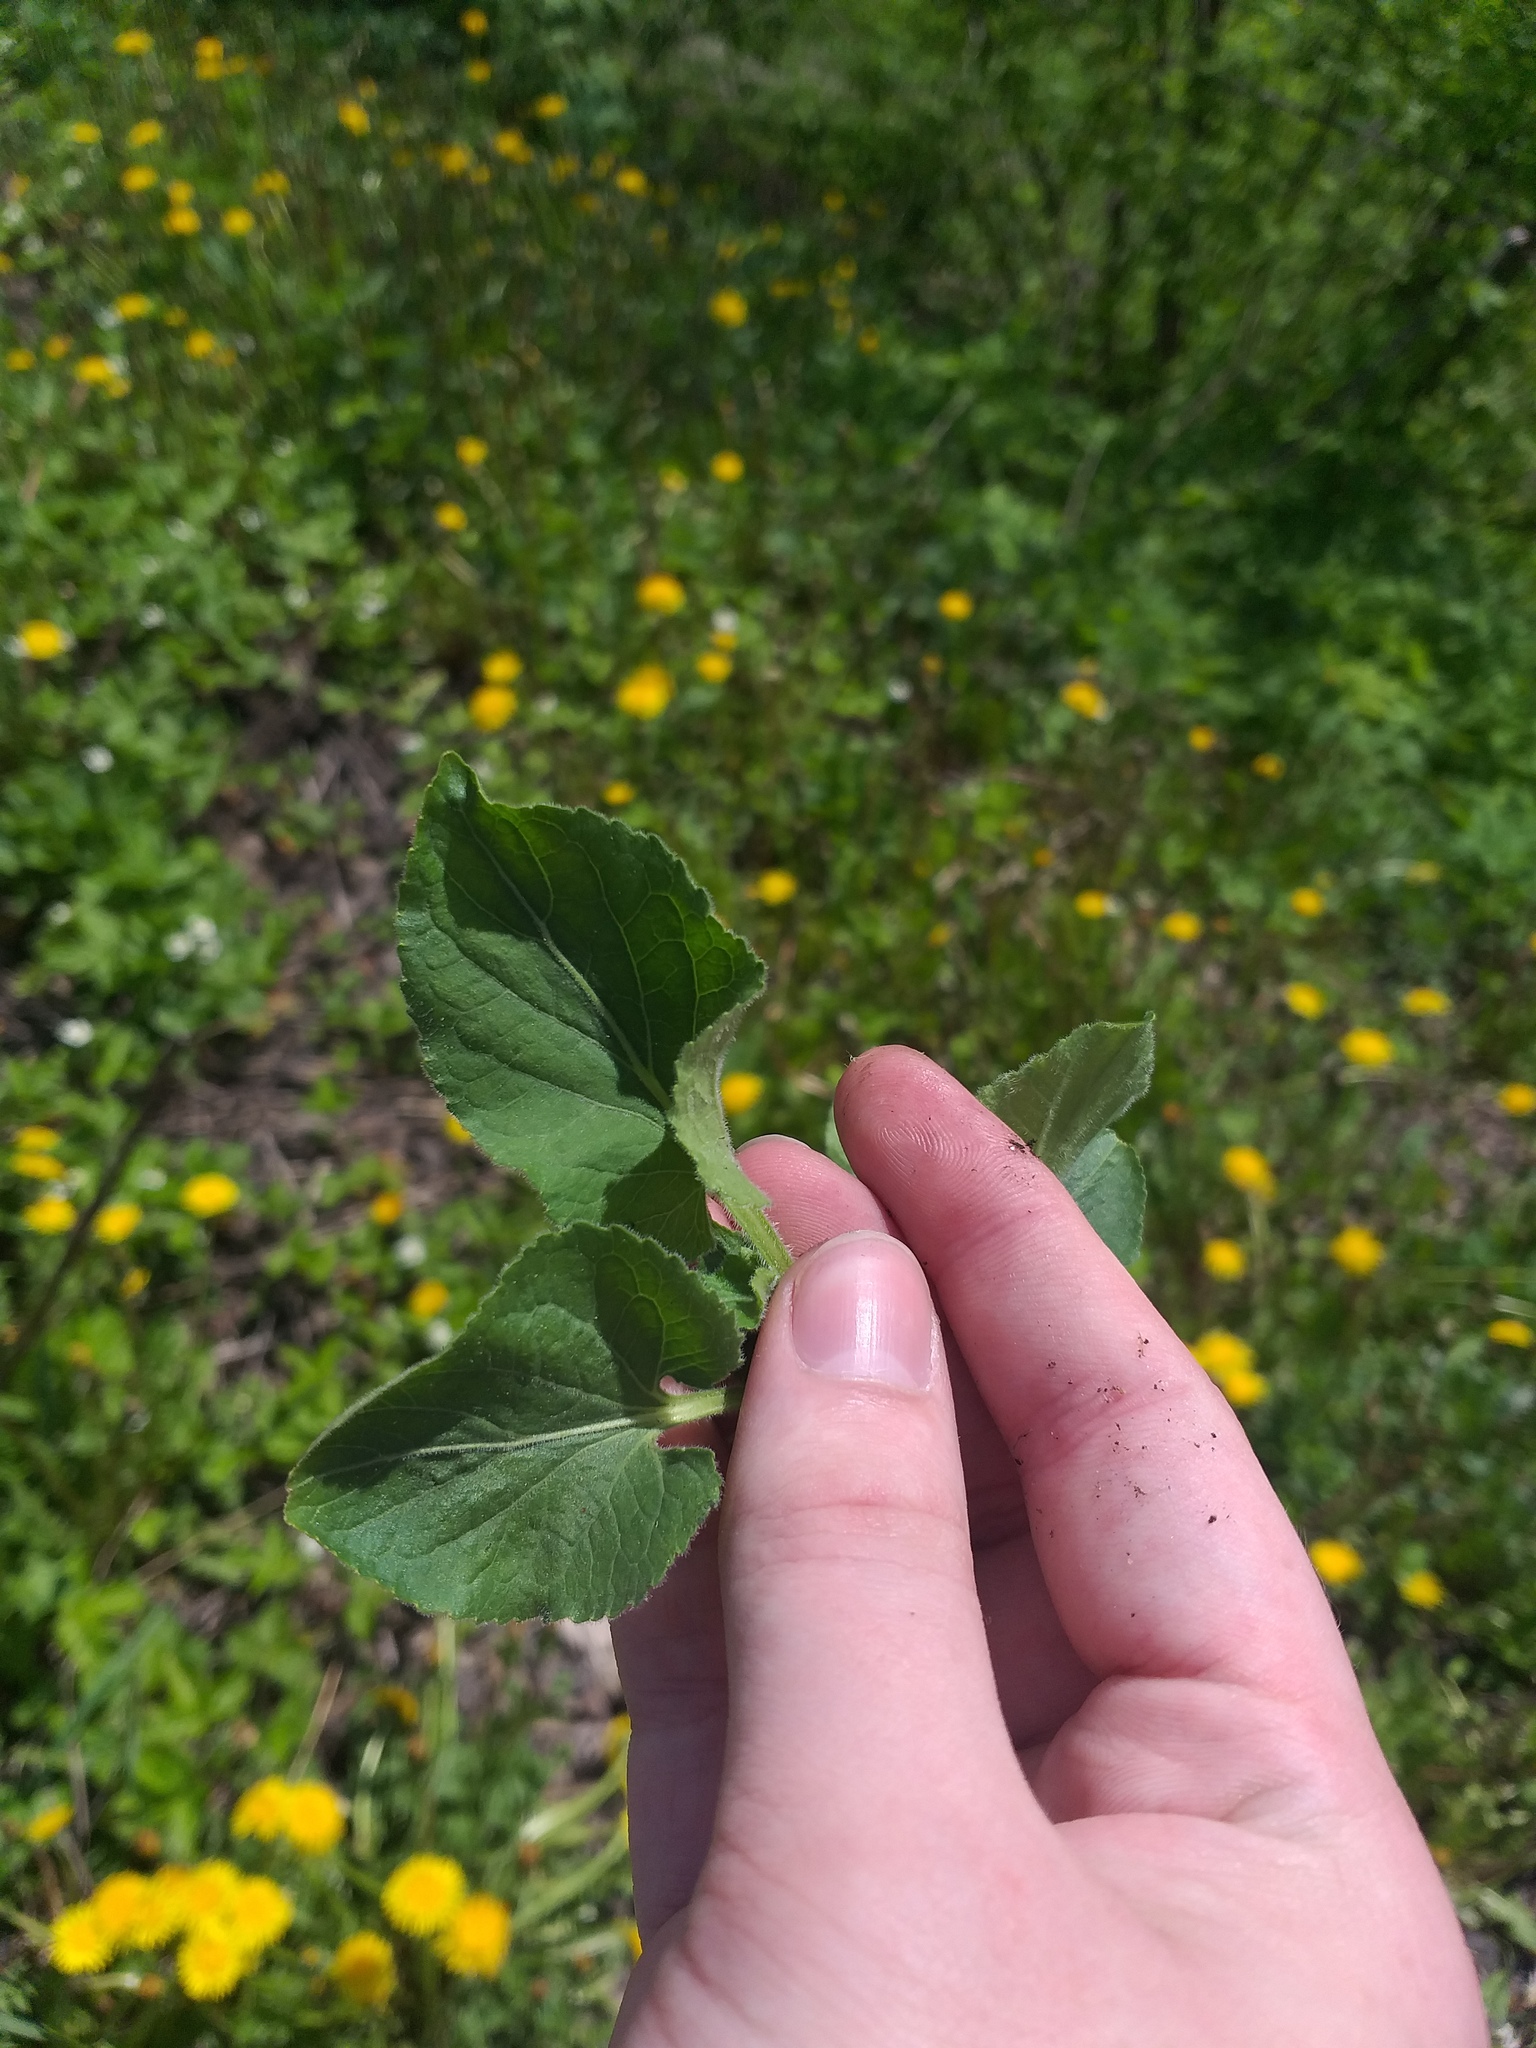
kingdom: Plantae
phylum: Tracheophyta
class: Magnoliopsida
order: Malpighiales
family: Violaceae
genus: Viola
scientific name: Viola hirta
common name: Hairy violet
